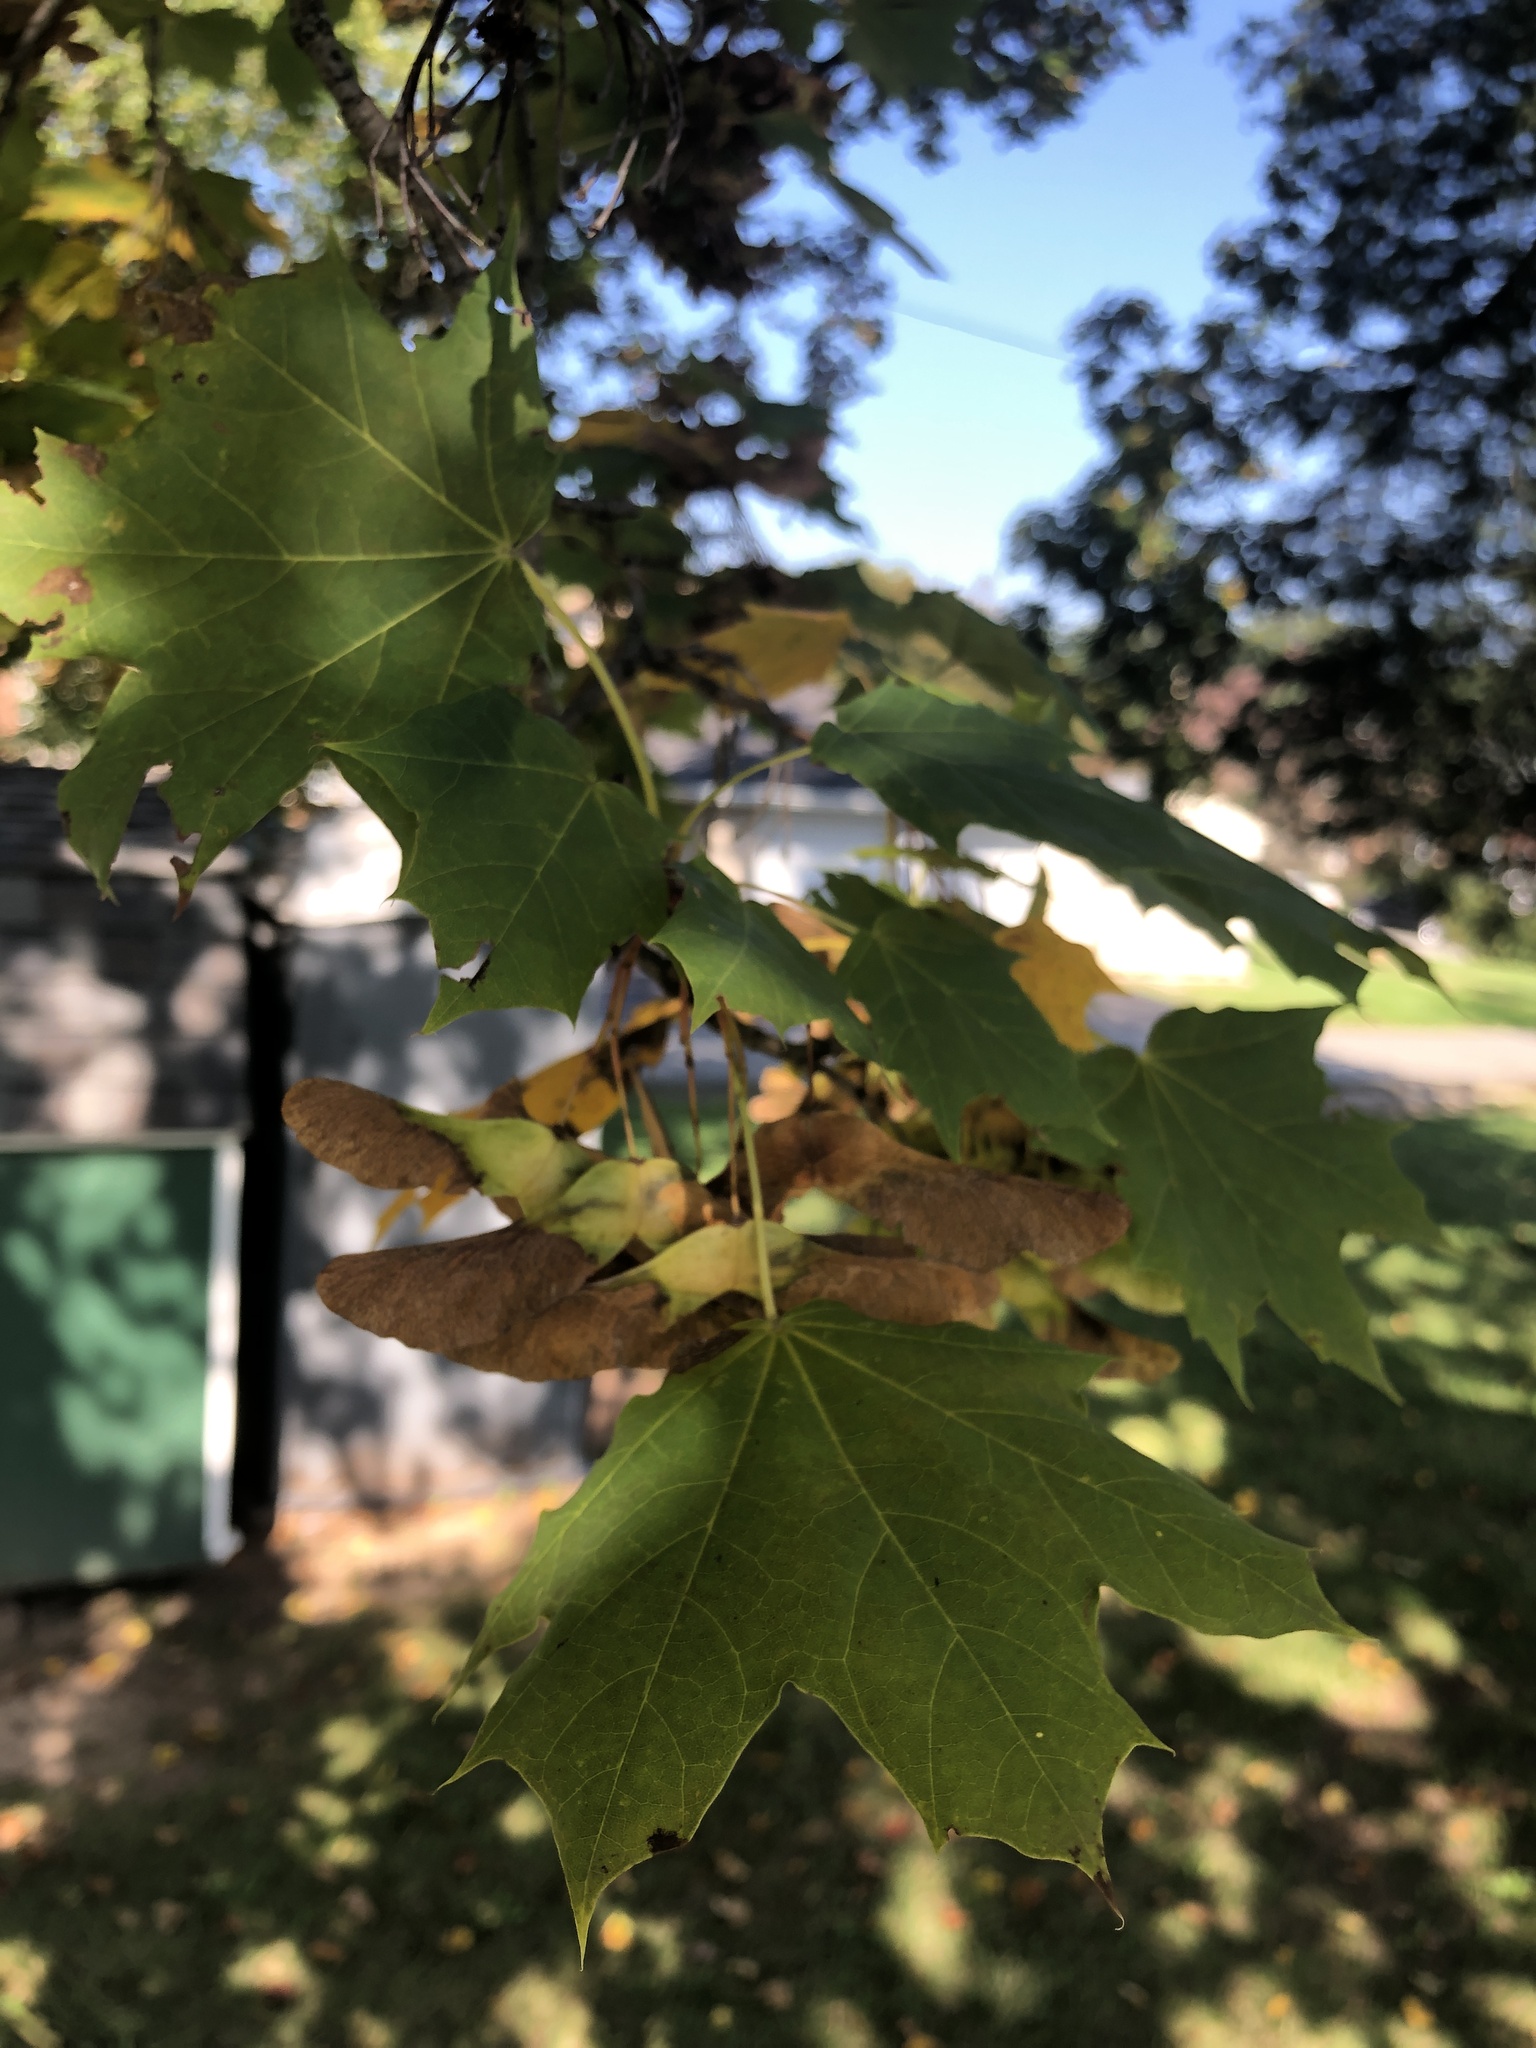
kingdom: Plantae
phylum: Tracheophyta
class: Magnoliopsida
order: Sapindales
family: Sapindaceae
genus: Acer
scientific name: Acer platanoides
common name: Norway maple
